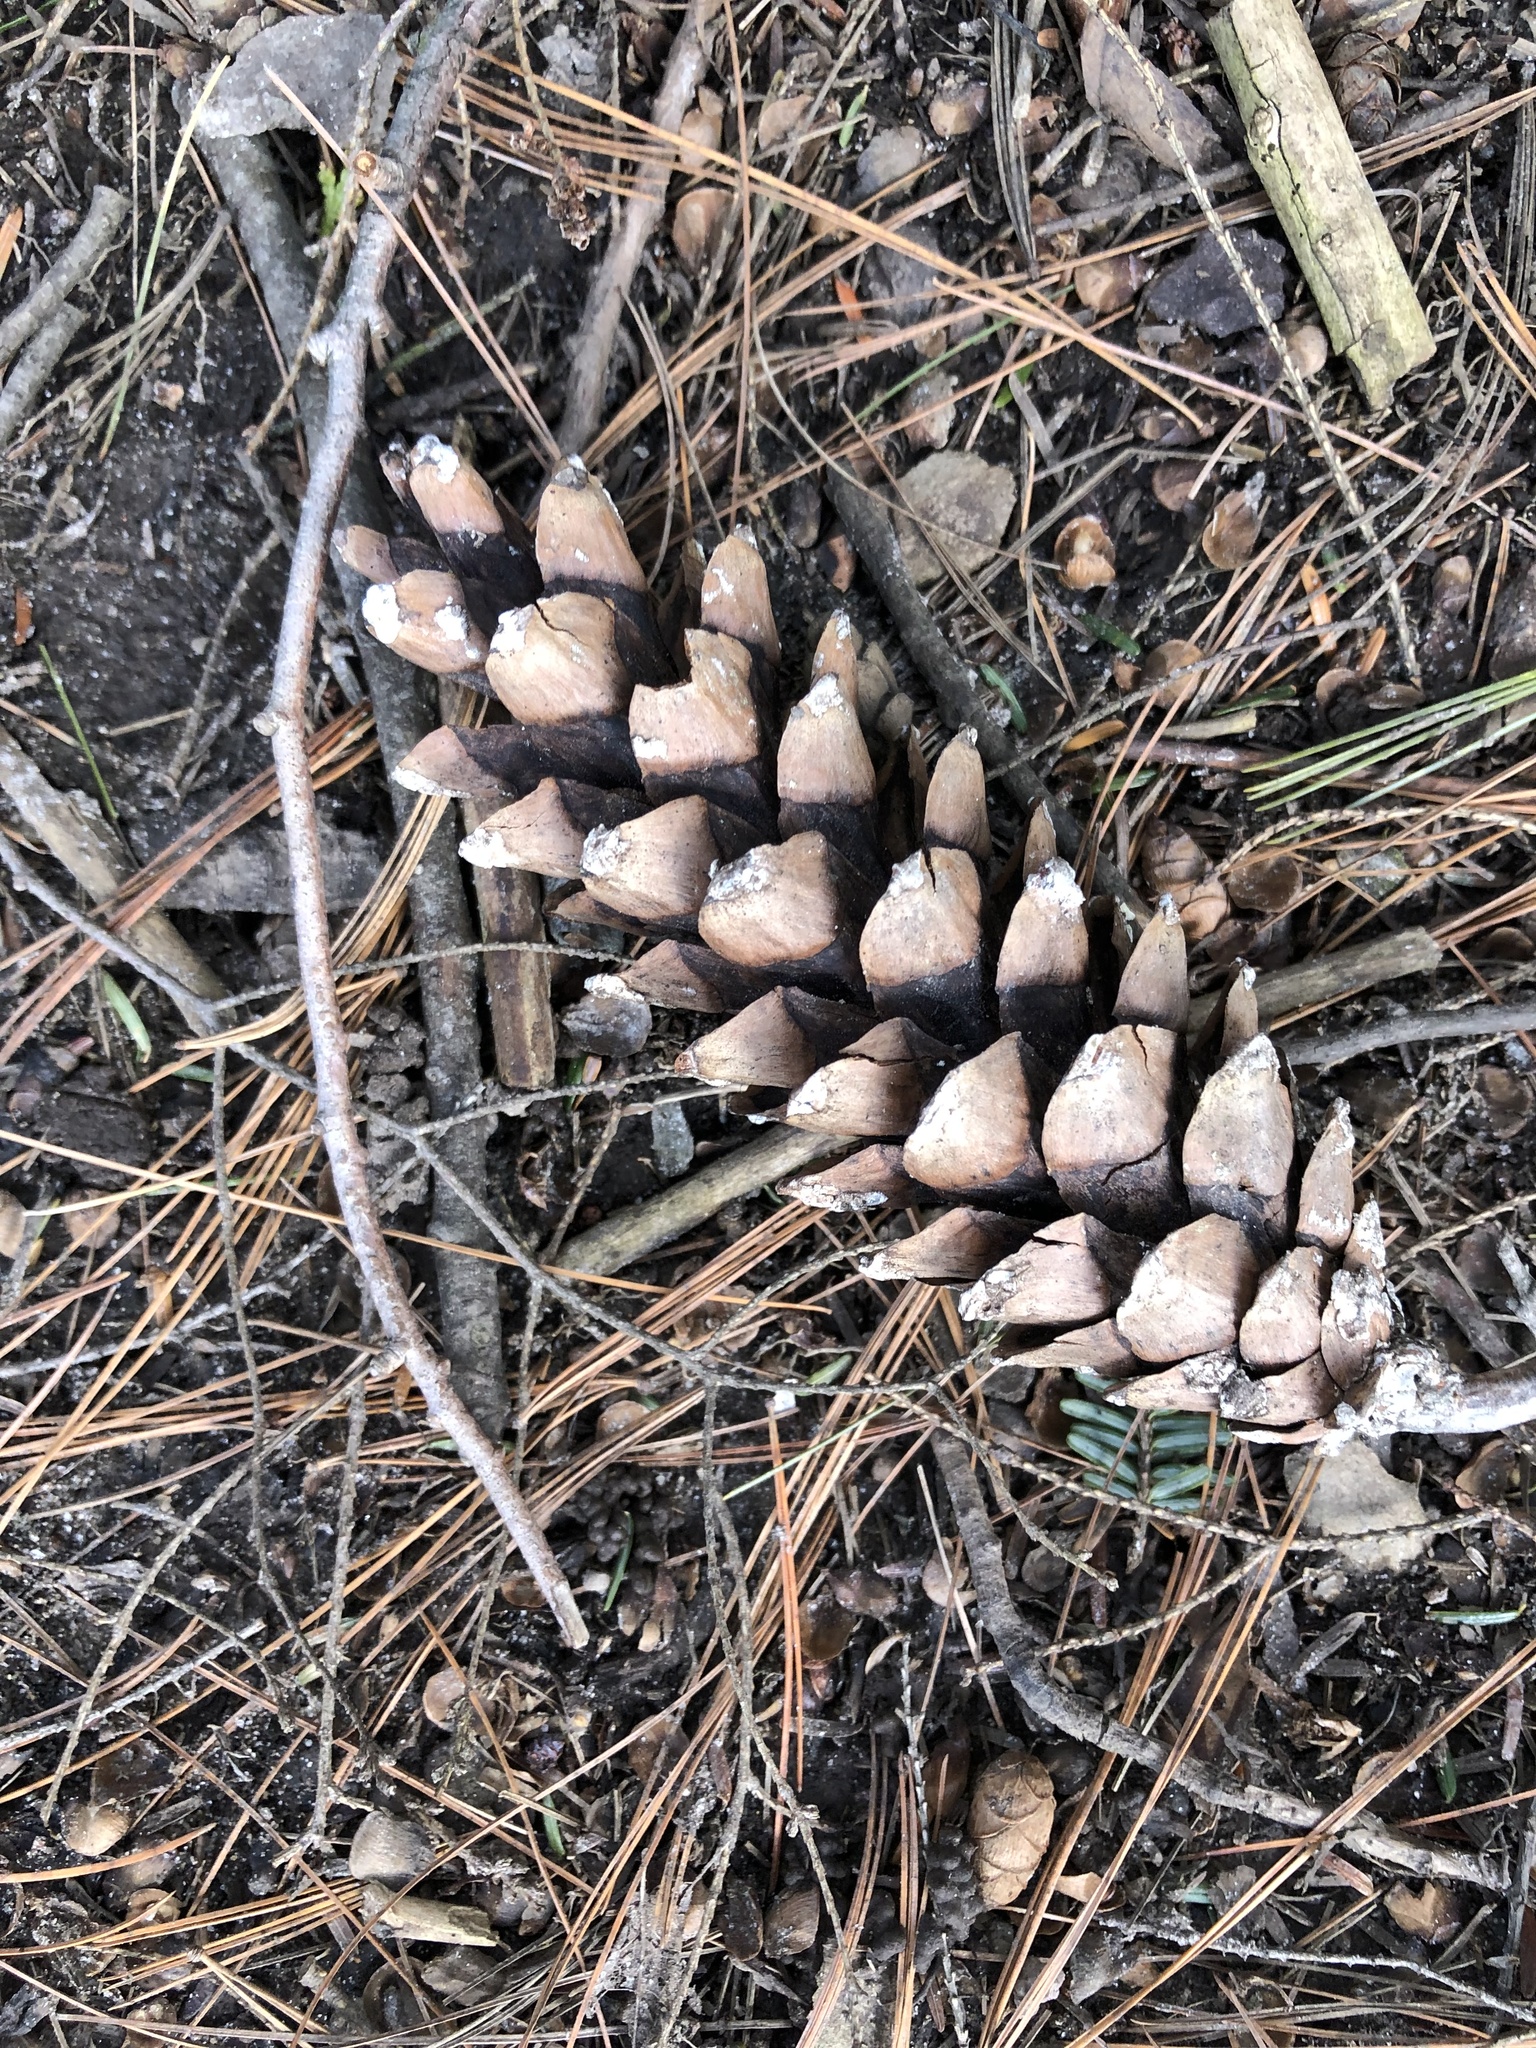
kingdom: Plantae
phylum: Tracheophyta
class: Pinopsida
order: Pinales
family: Pinaceae
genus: Pinus
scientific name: Pinus strobus
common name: Weymouth pine
